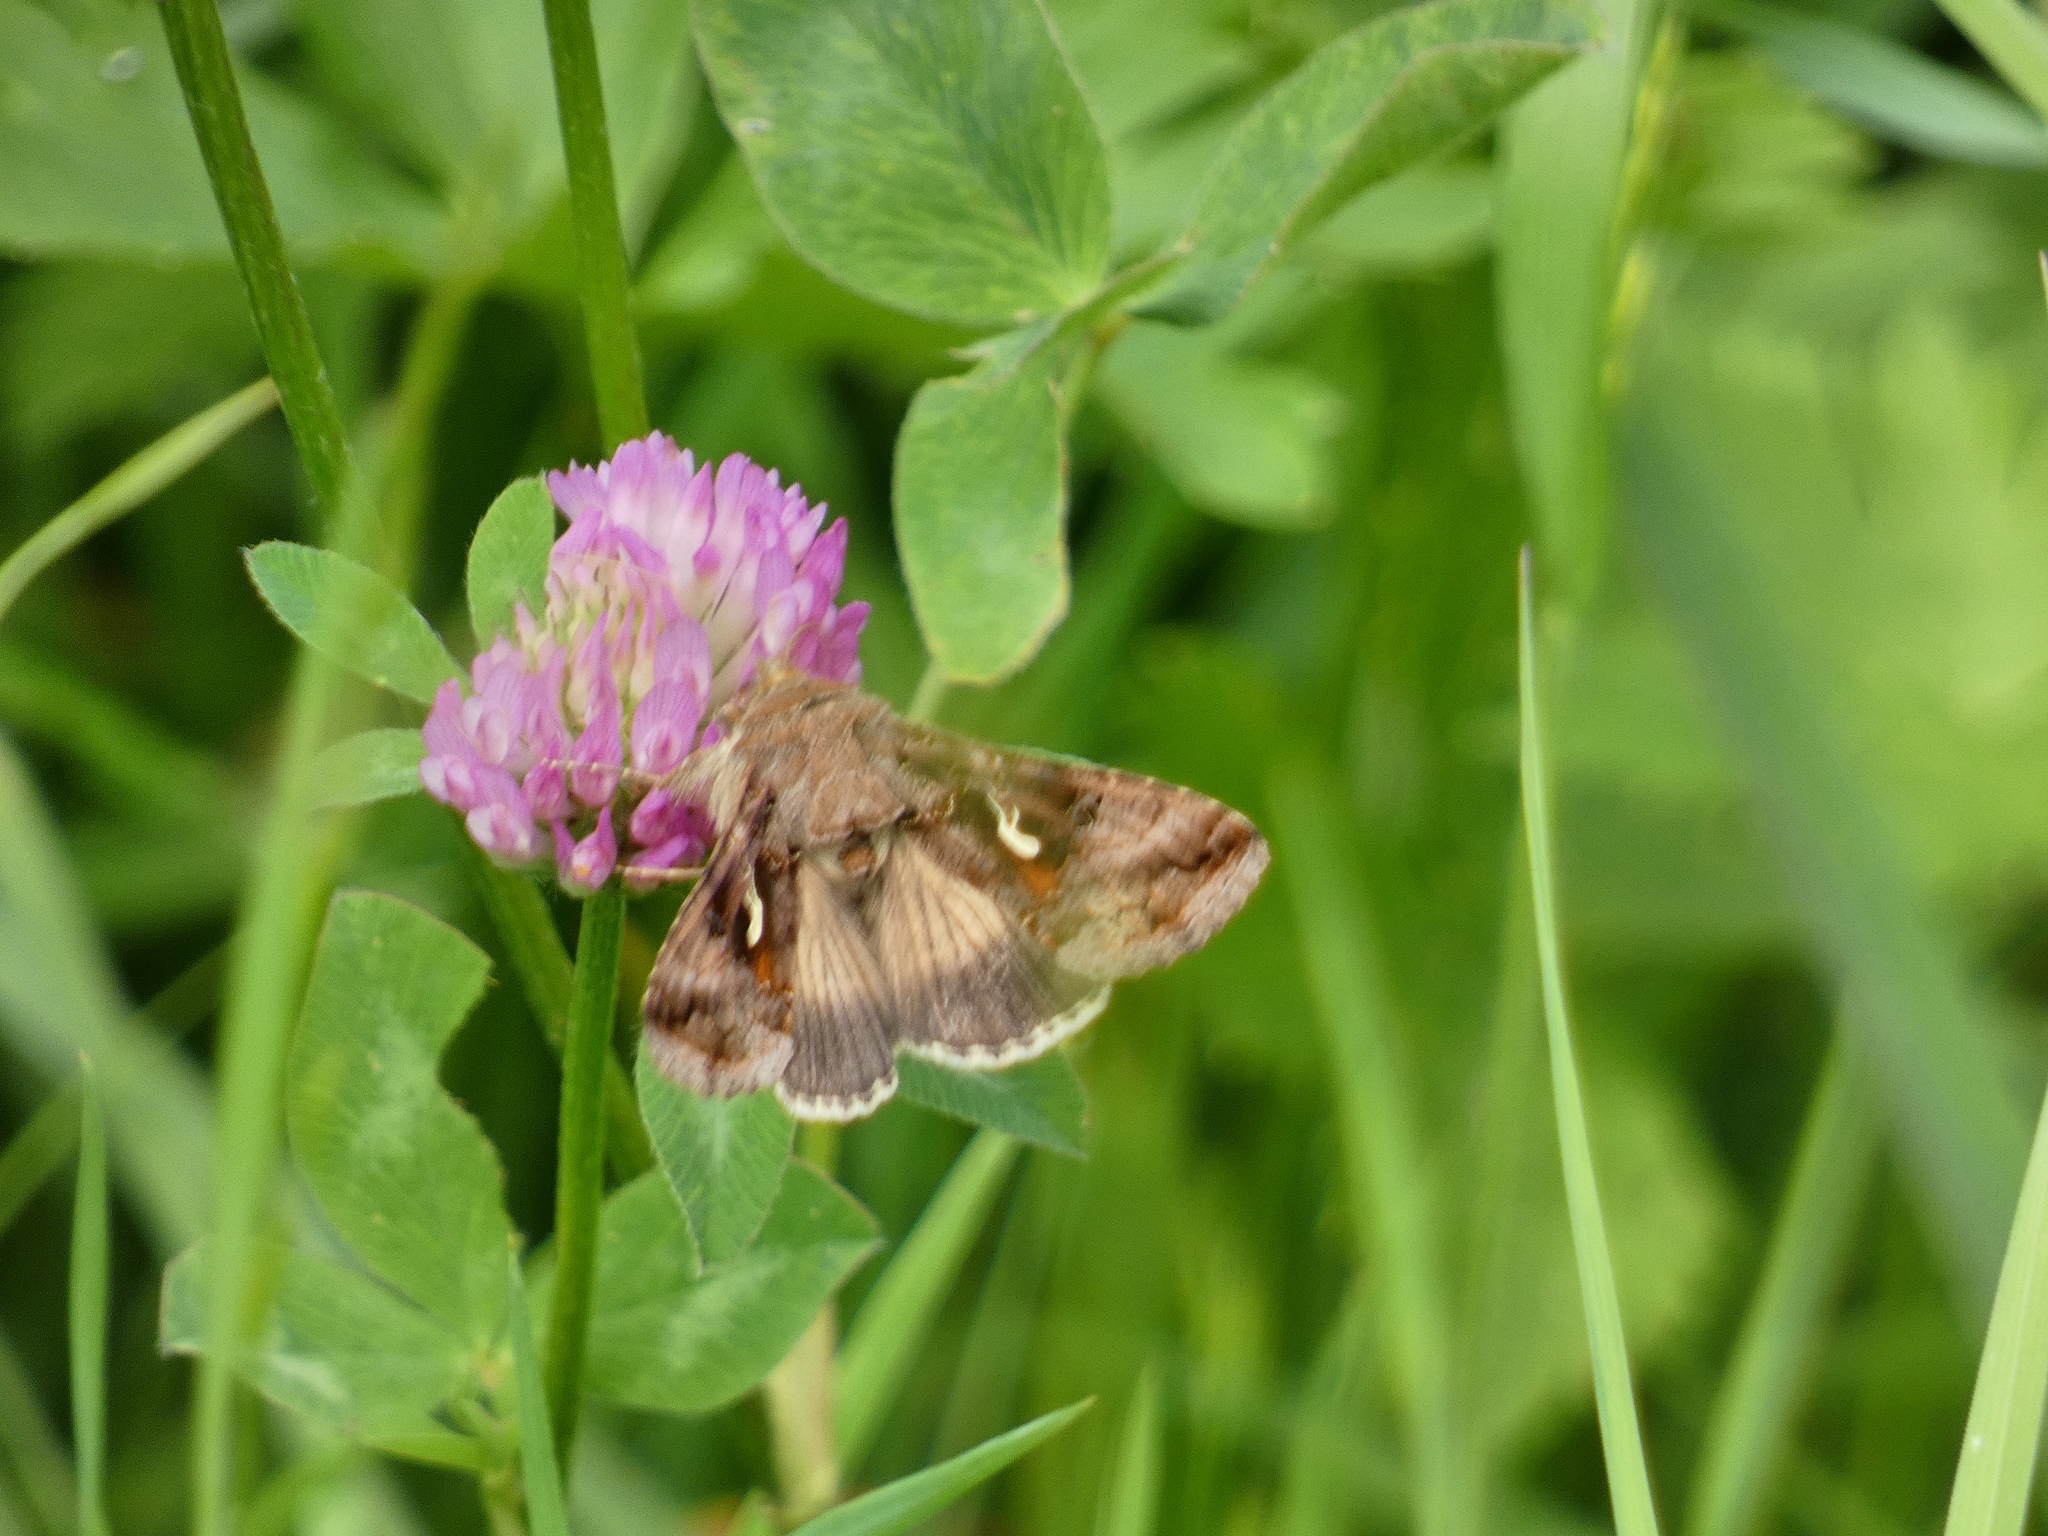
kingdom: Animalia
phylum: Arthropoda
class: Insecta
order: Lepidoptera
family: Noctuidae
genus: Autographa
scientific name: Autographa gamma
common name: Silver y
